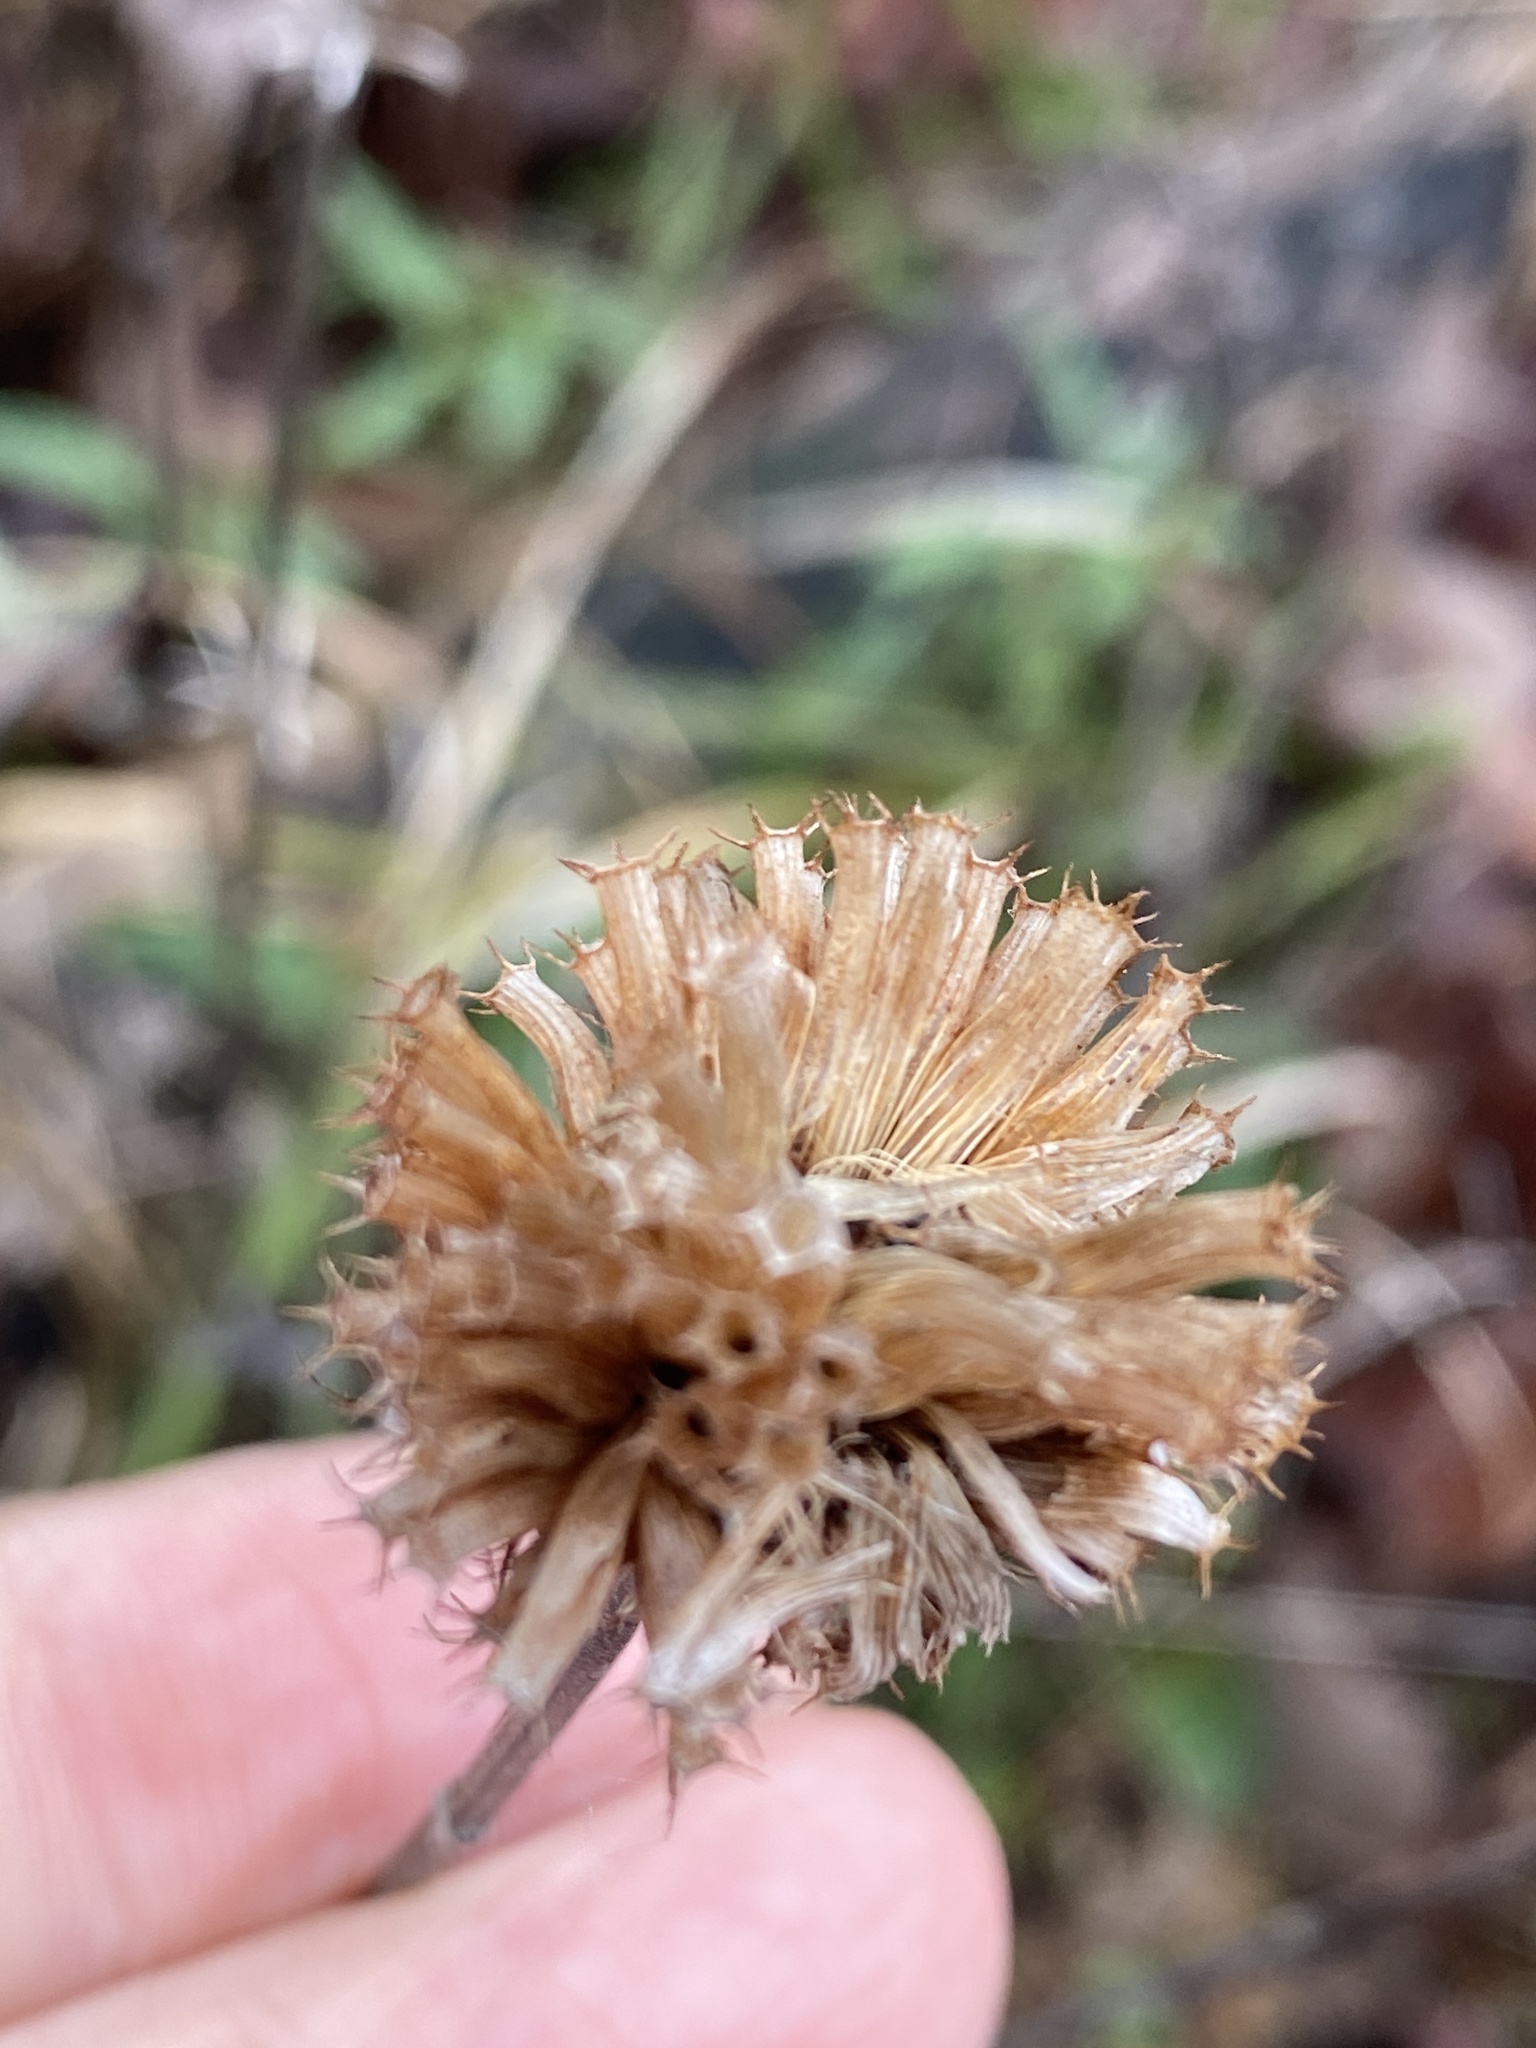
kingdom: Plantae
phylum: Tracheophyta
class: Magnoliopsida
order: Lamiales
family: Lamiaceae
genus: Monarda
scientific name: Monarda fistulosa
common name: Purple beebalm
